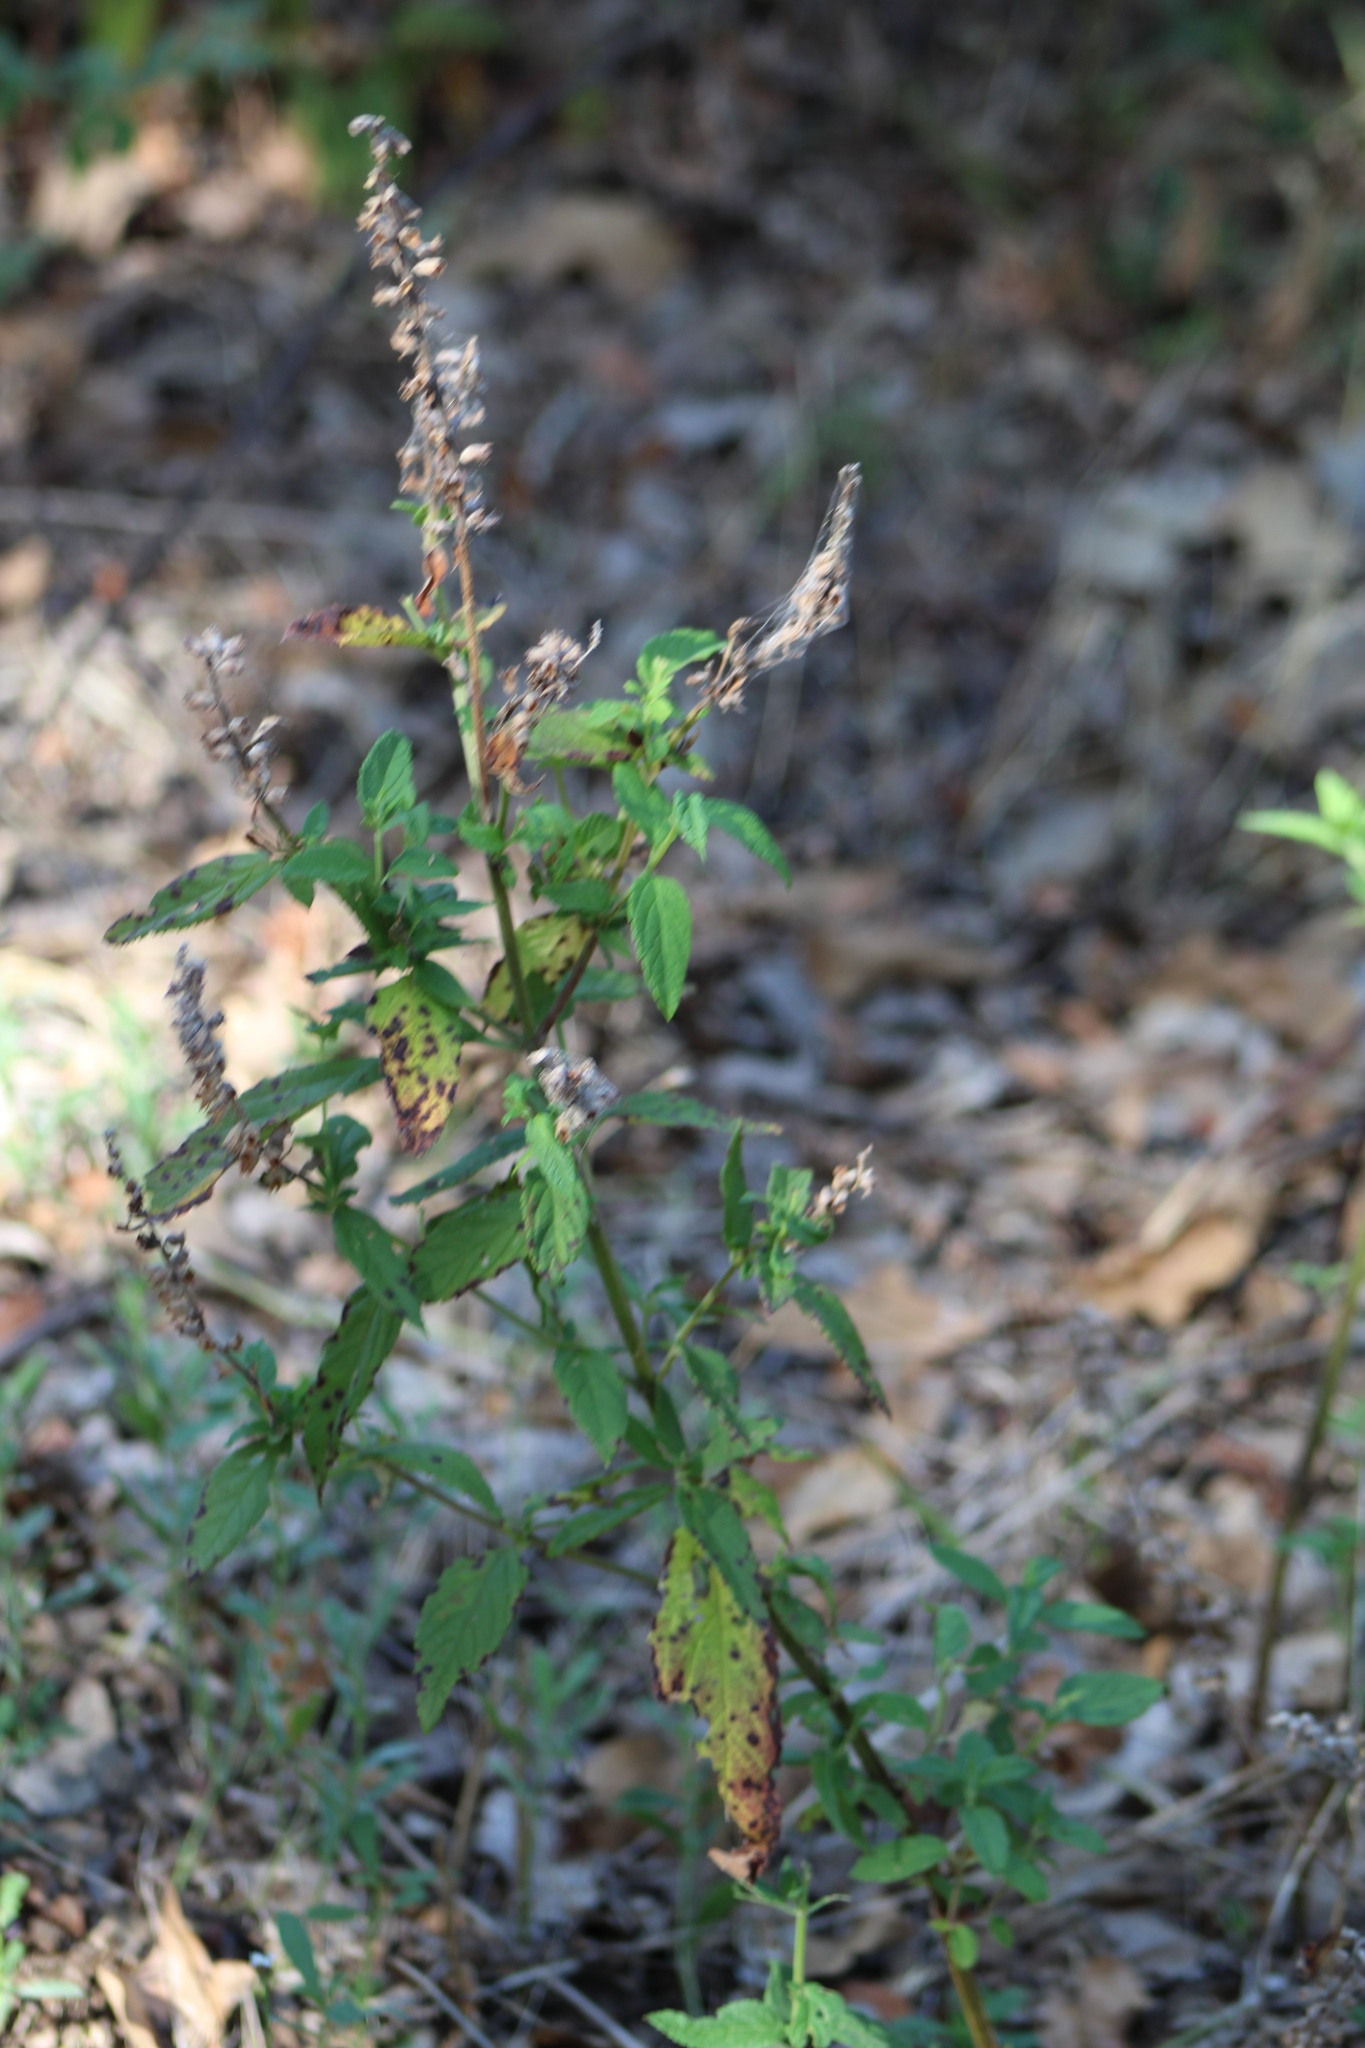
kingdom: Plantae
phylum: Tracheophyta
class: Magnoliopsida
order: Lamiales
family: Lamiaceae
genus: Teucrium
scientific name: Teucrium canadense
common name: American germander
